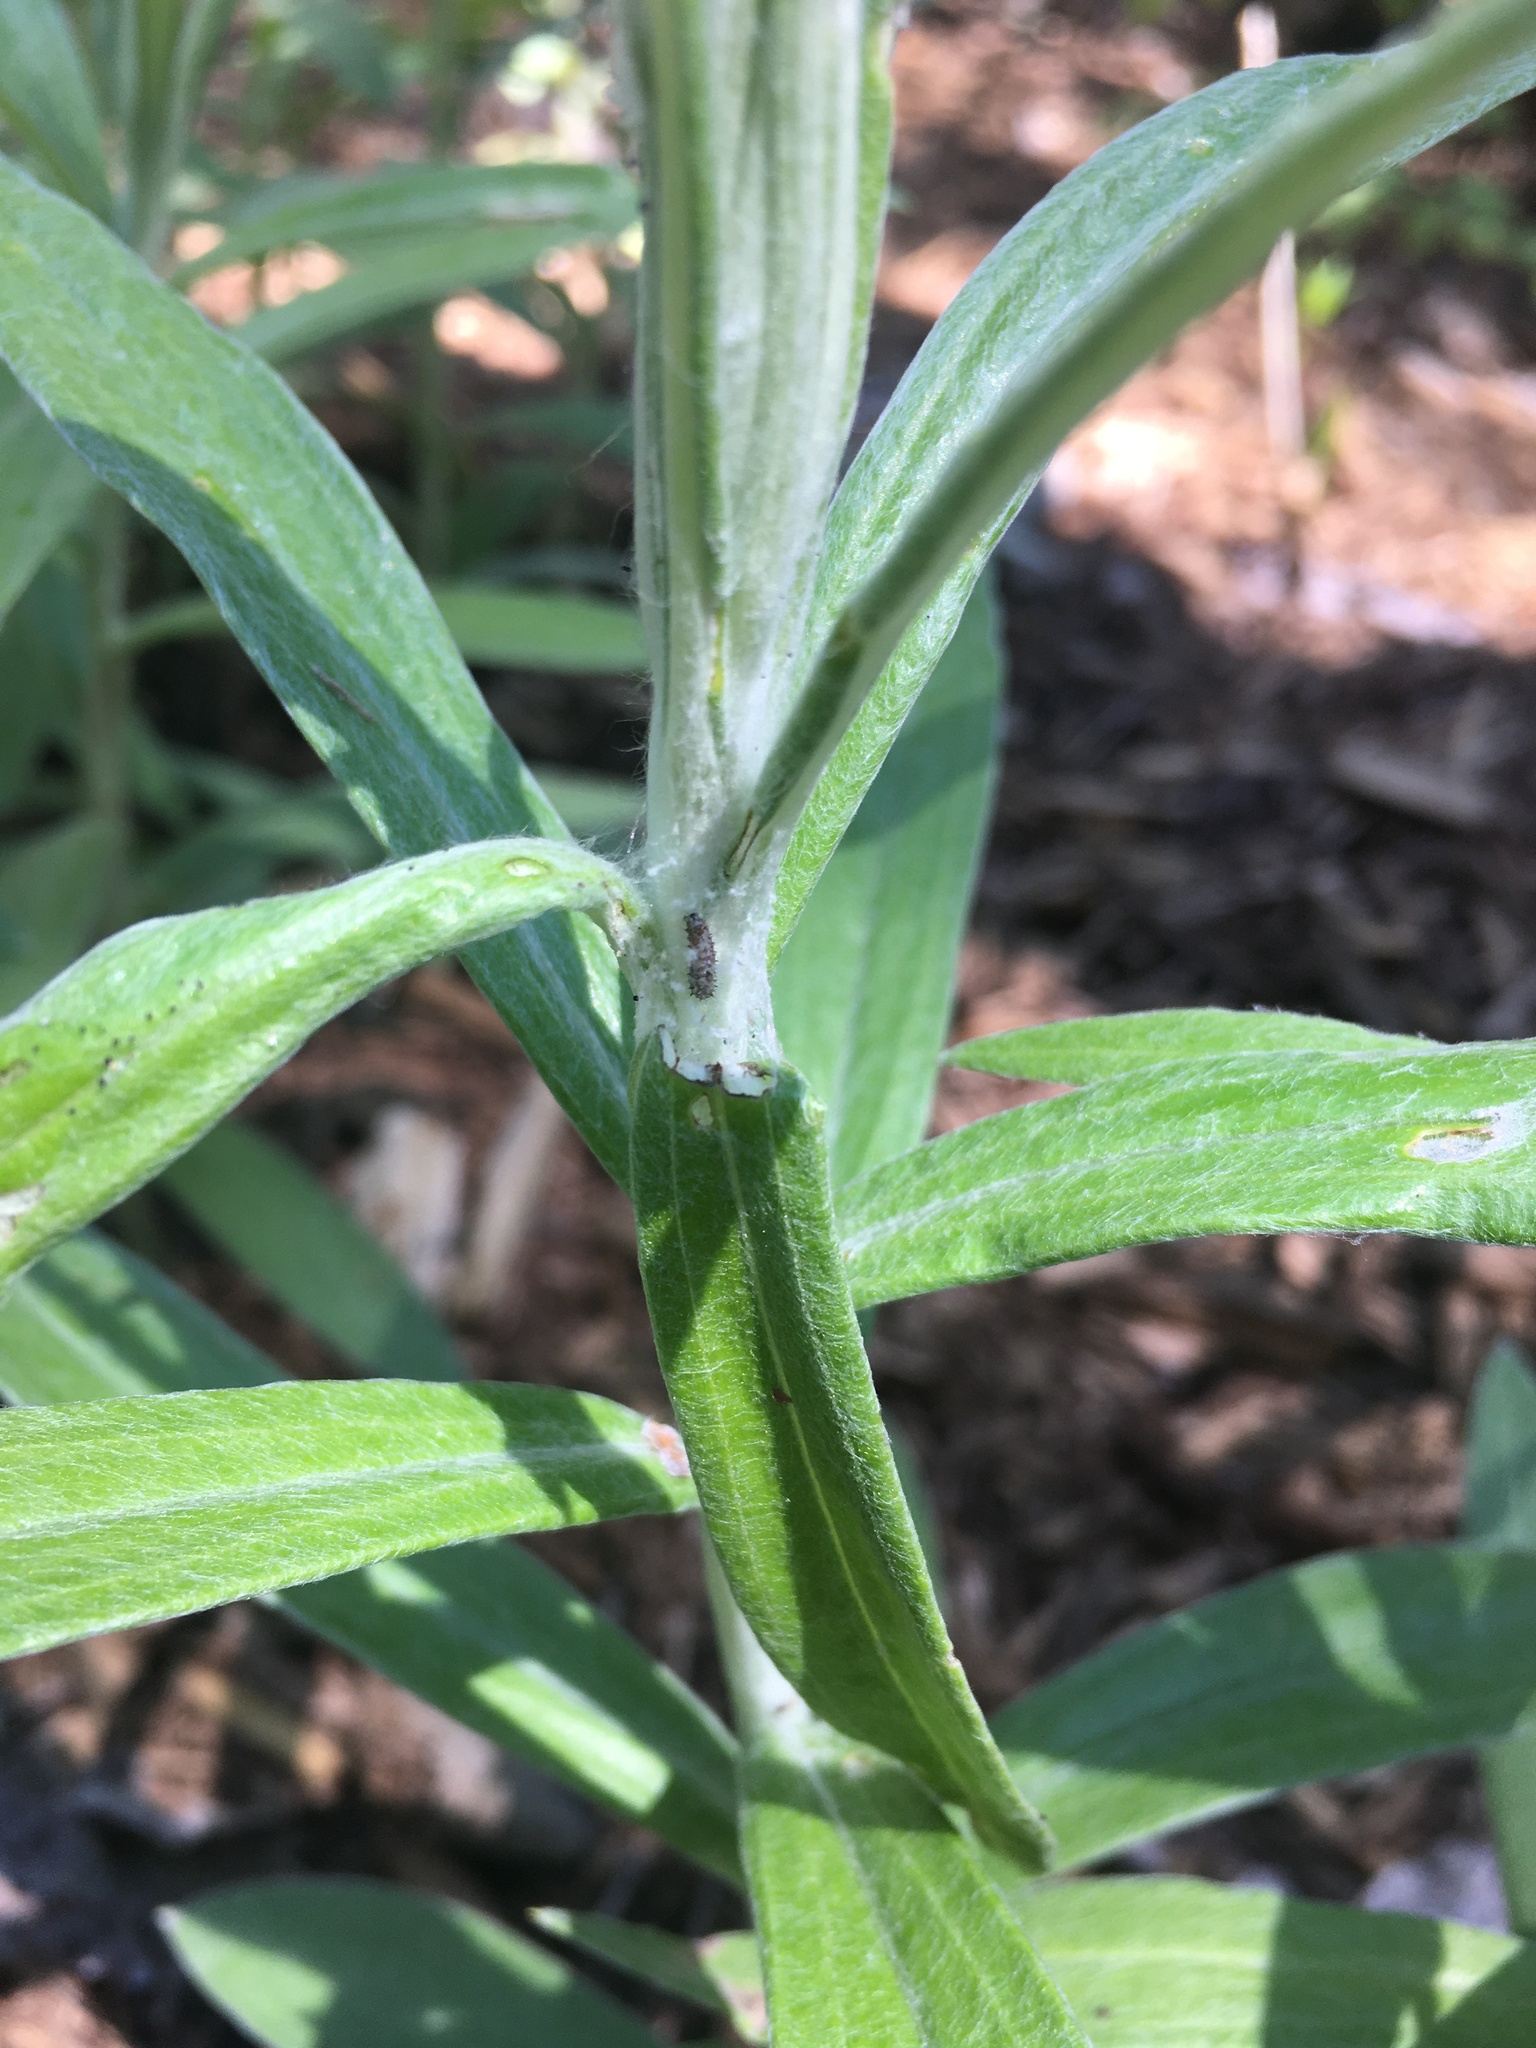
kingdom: Animalia
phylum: Arthropoda
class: Insecta
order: Lepidoptera
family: Nymphalidae
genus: Vanessa
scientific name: Vanessa virginiensis
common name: American lady
